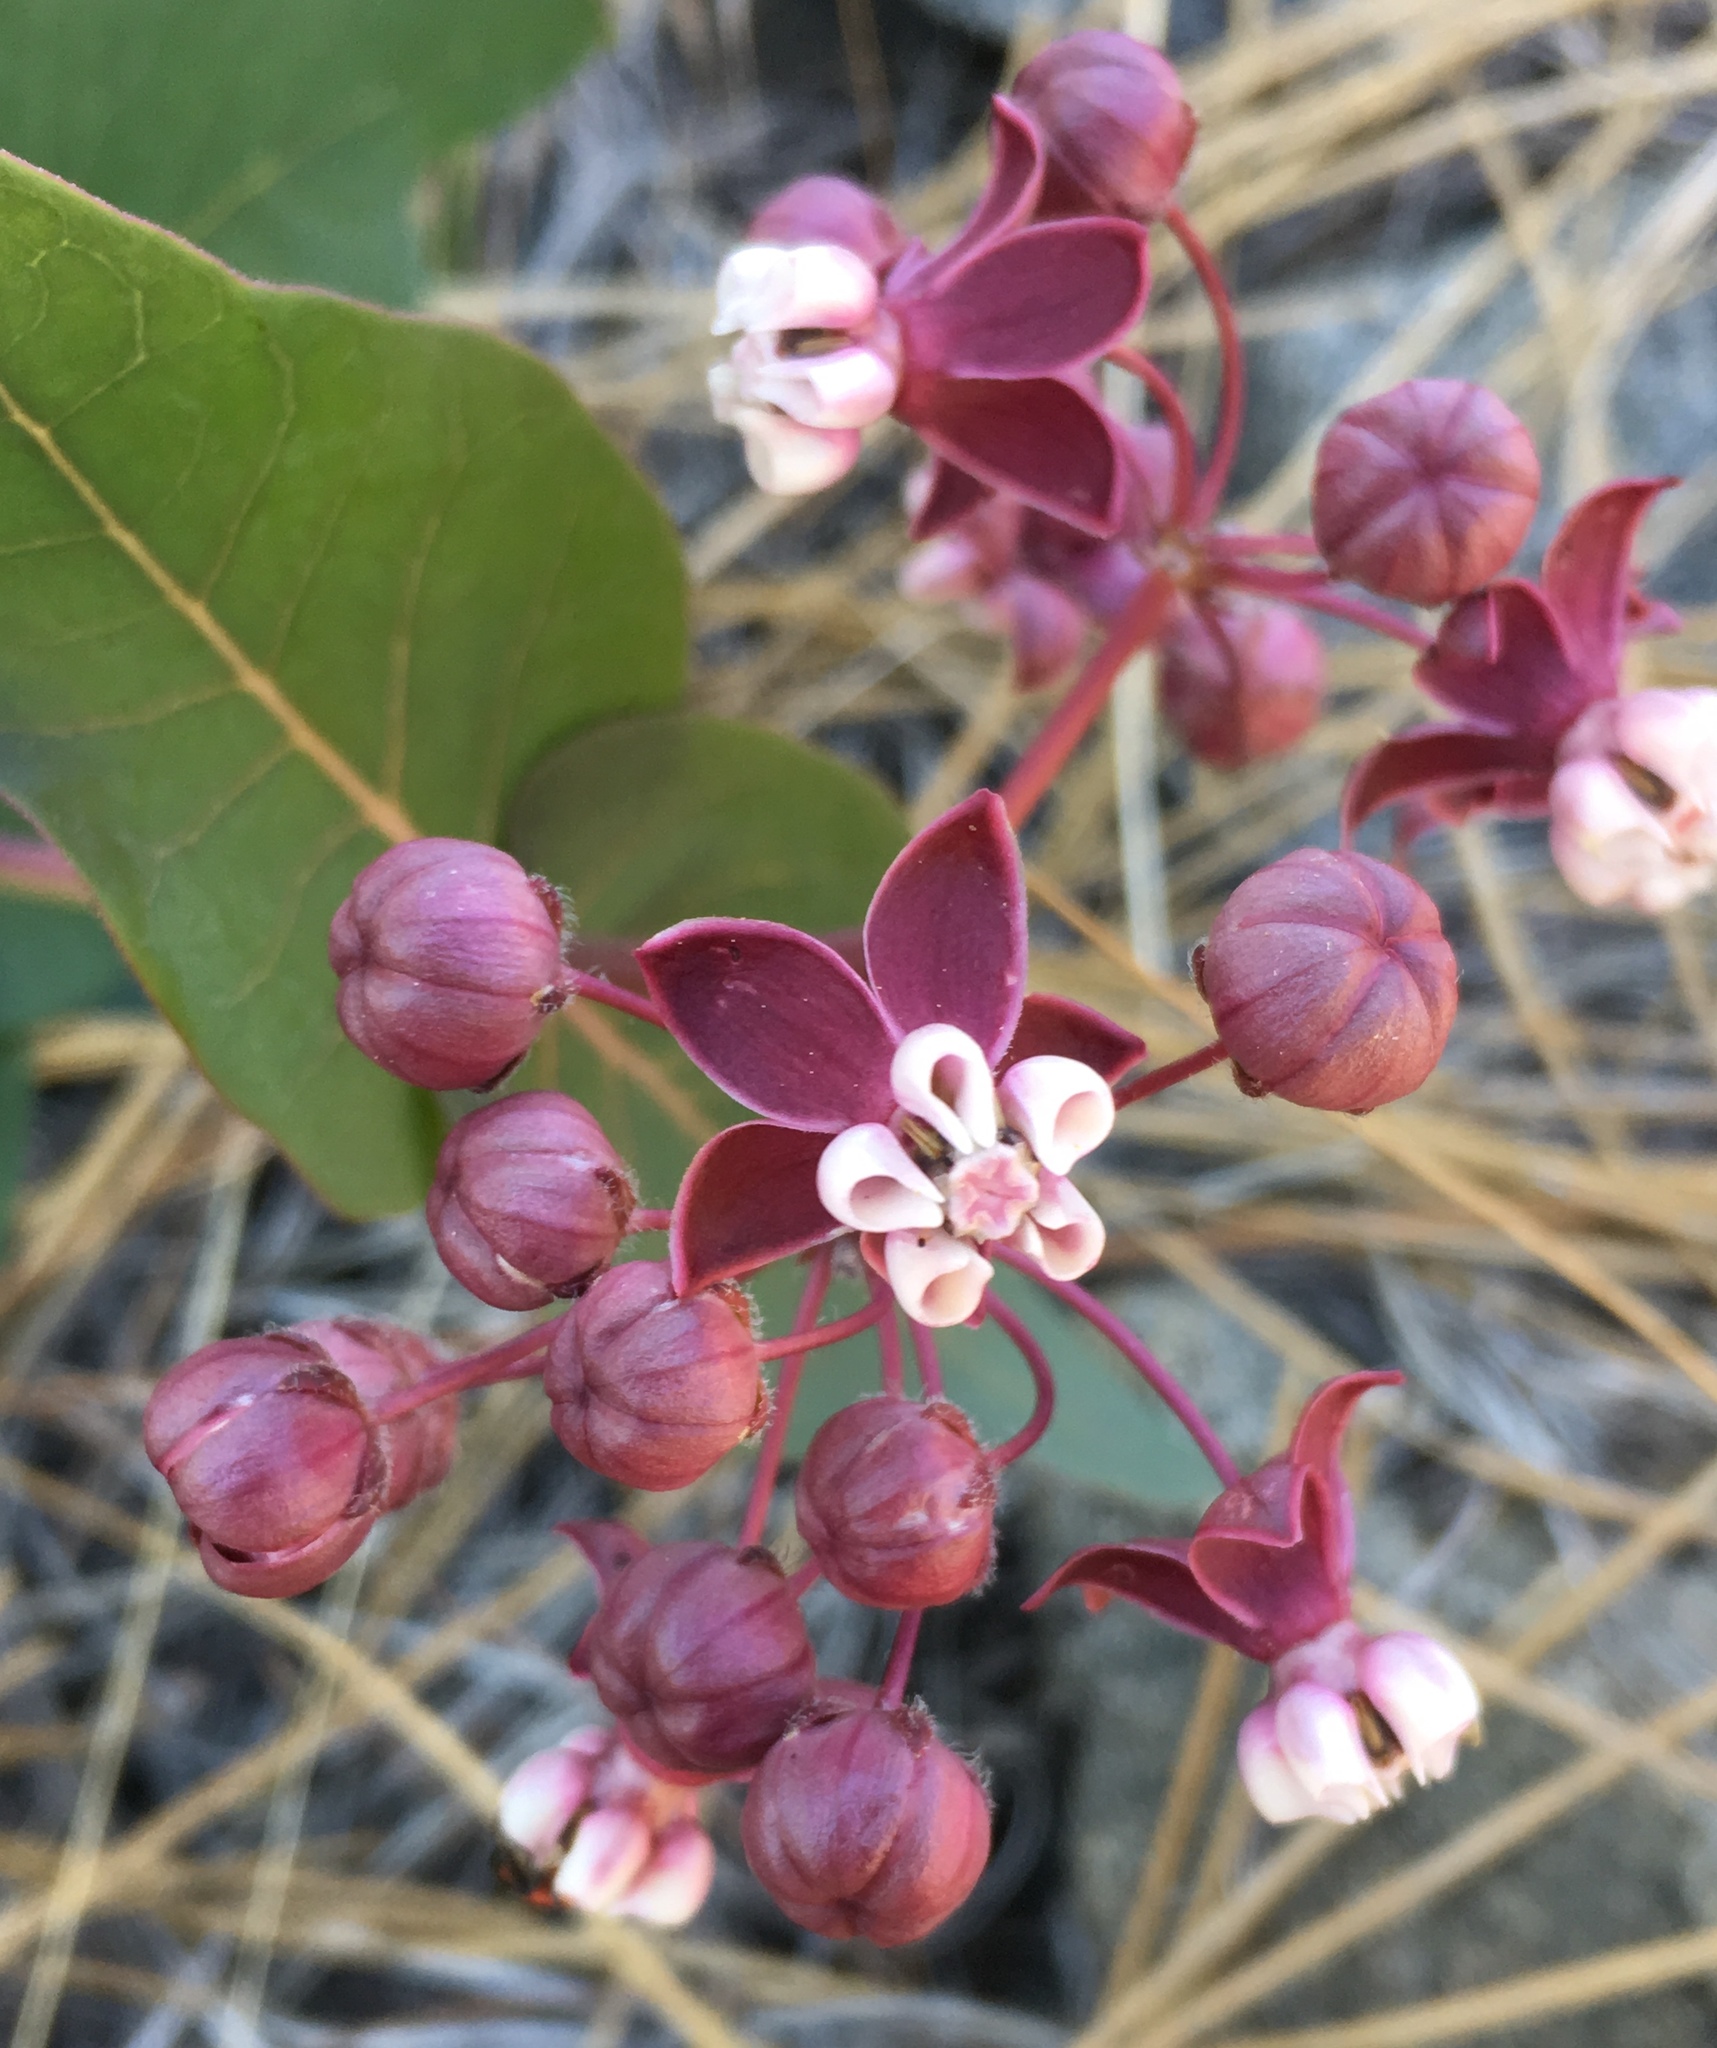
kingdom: Plantae
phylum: Tracheophyta
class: Magnoliopsida
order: Gentianales
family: Apocynaceae
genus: Asclepias
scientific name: Asclepias cordifolia
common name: Purple milkweed
